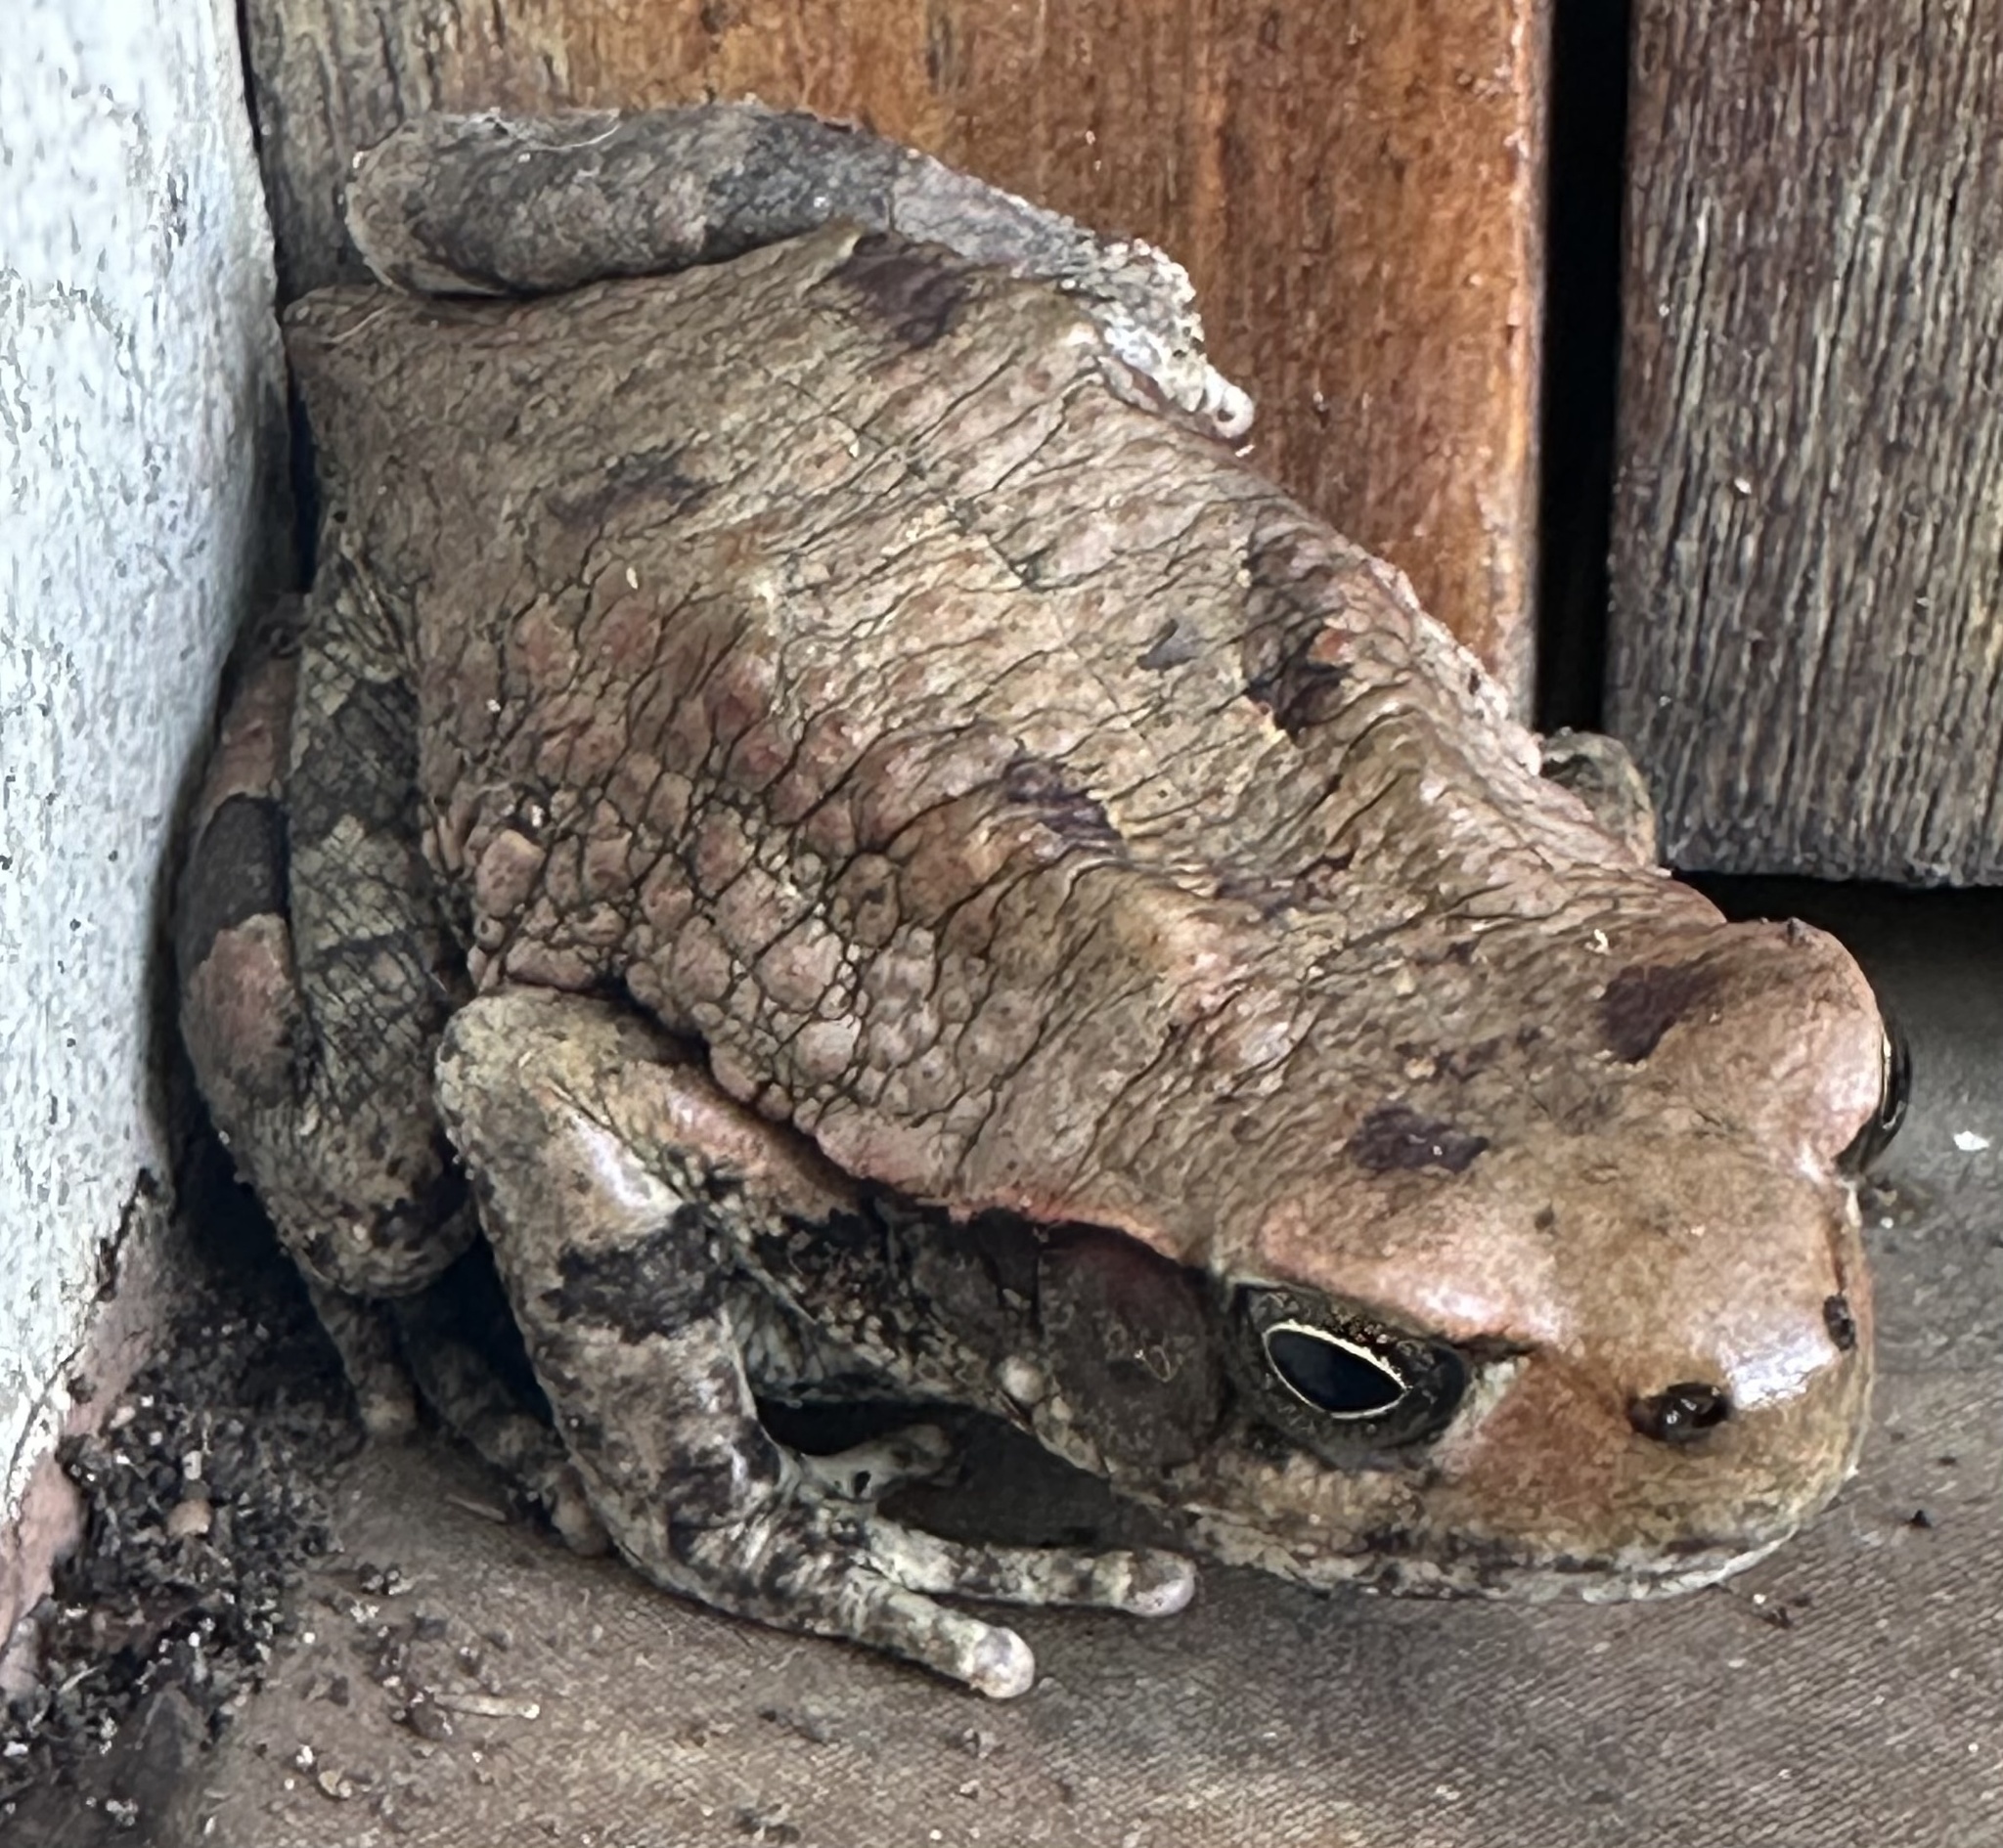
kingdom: Animalia
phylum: Chordata
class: Amphibia
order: Anura
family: Bufonidae
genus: Schismaderma
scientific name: Schismaderma carens
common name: African split-skin toad
